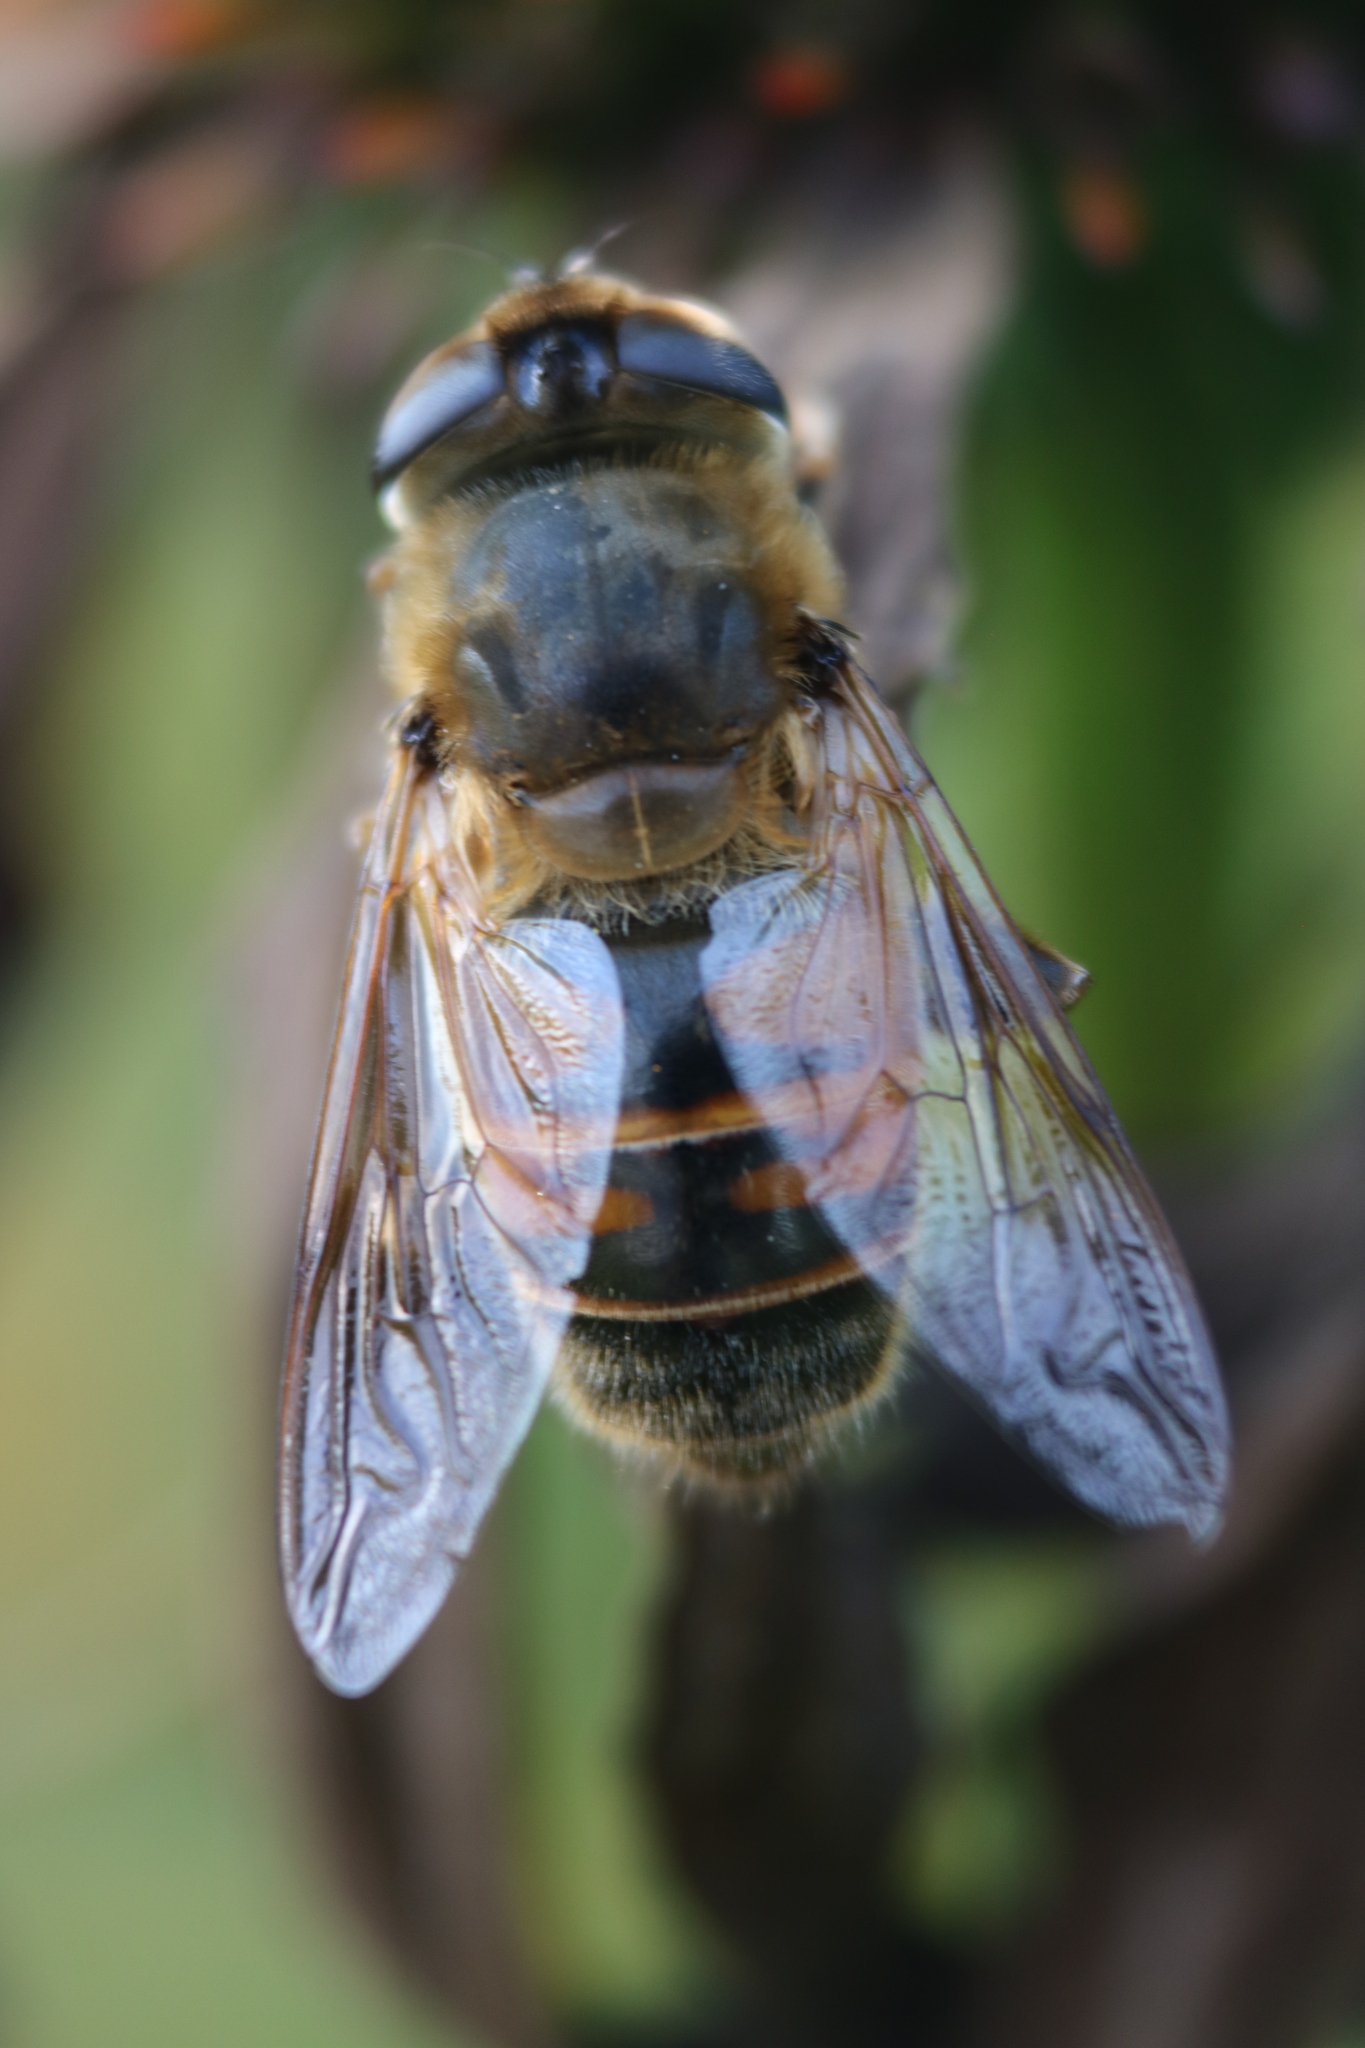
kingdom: Animalia
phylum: Arthropoda
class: Insecta
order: Diptera
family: Syrphidae
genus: Eristalis
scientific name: Eristalis tenax
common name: Drone fly
